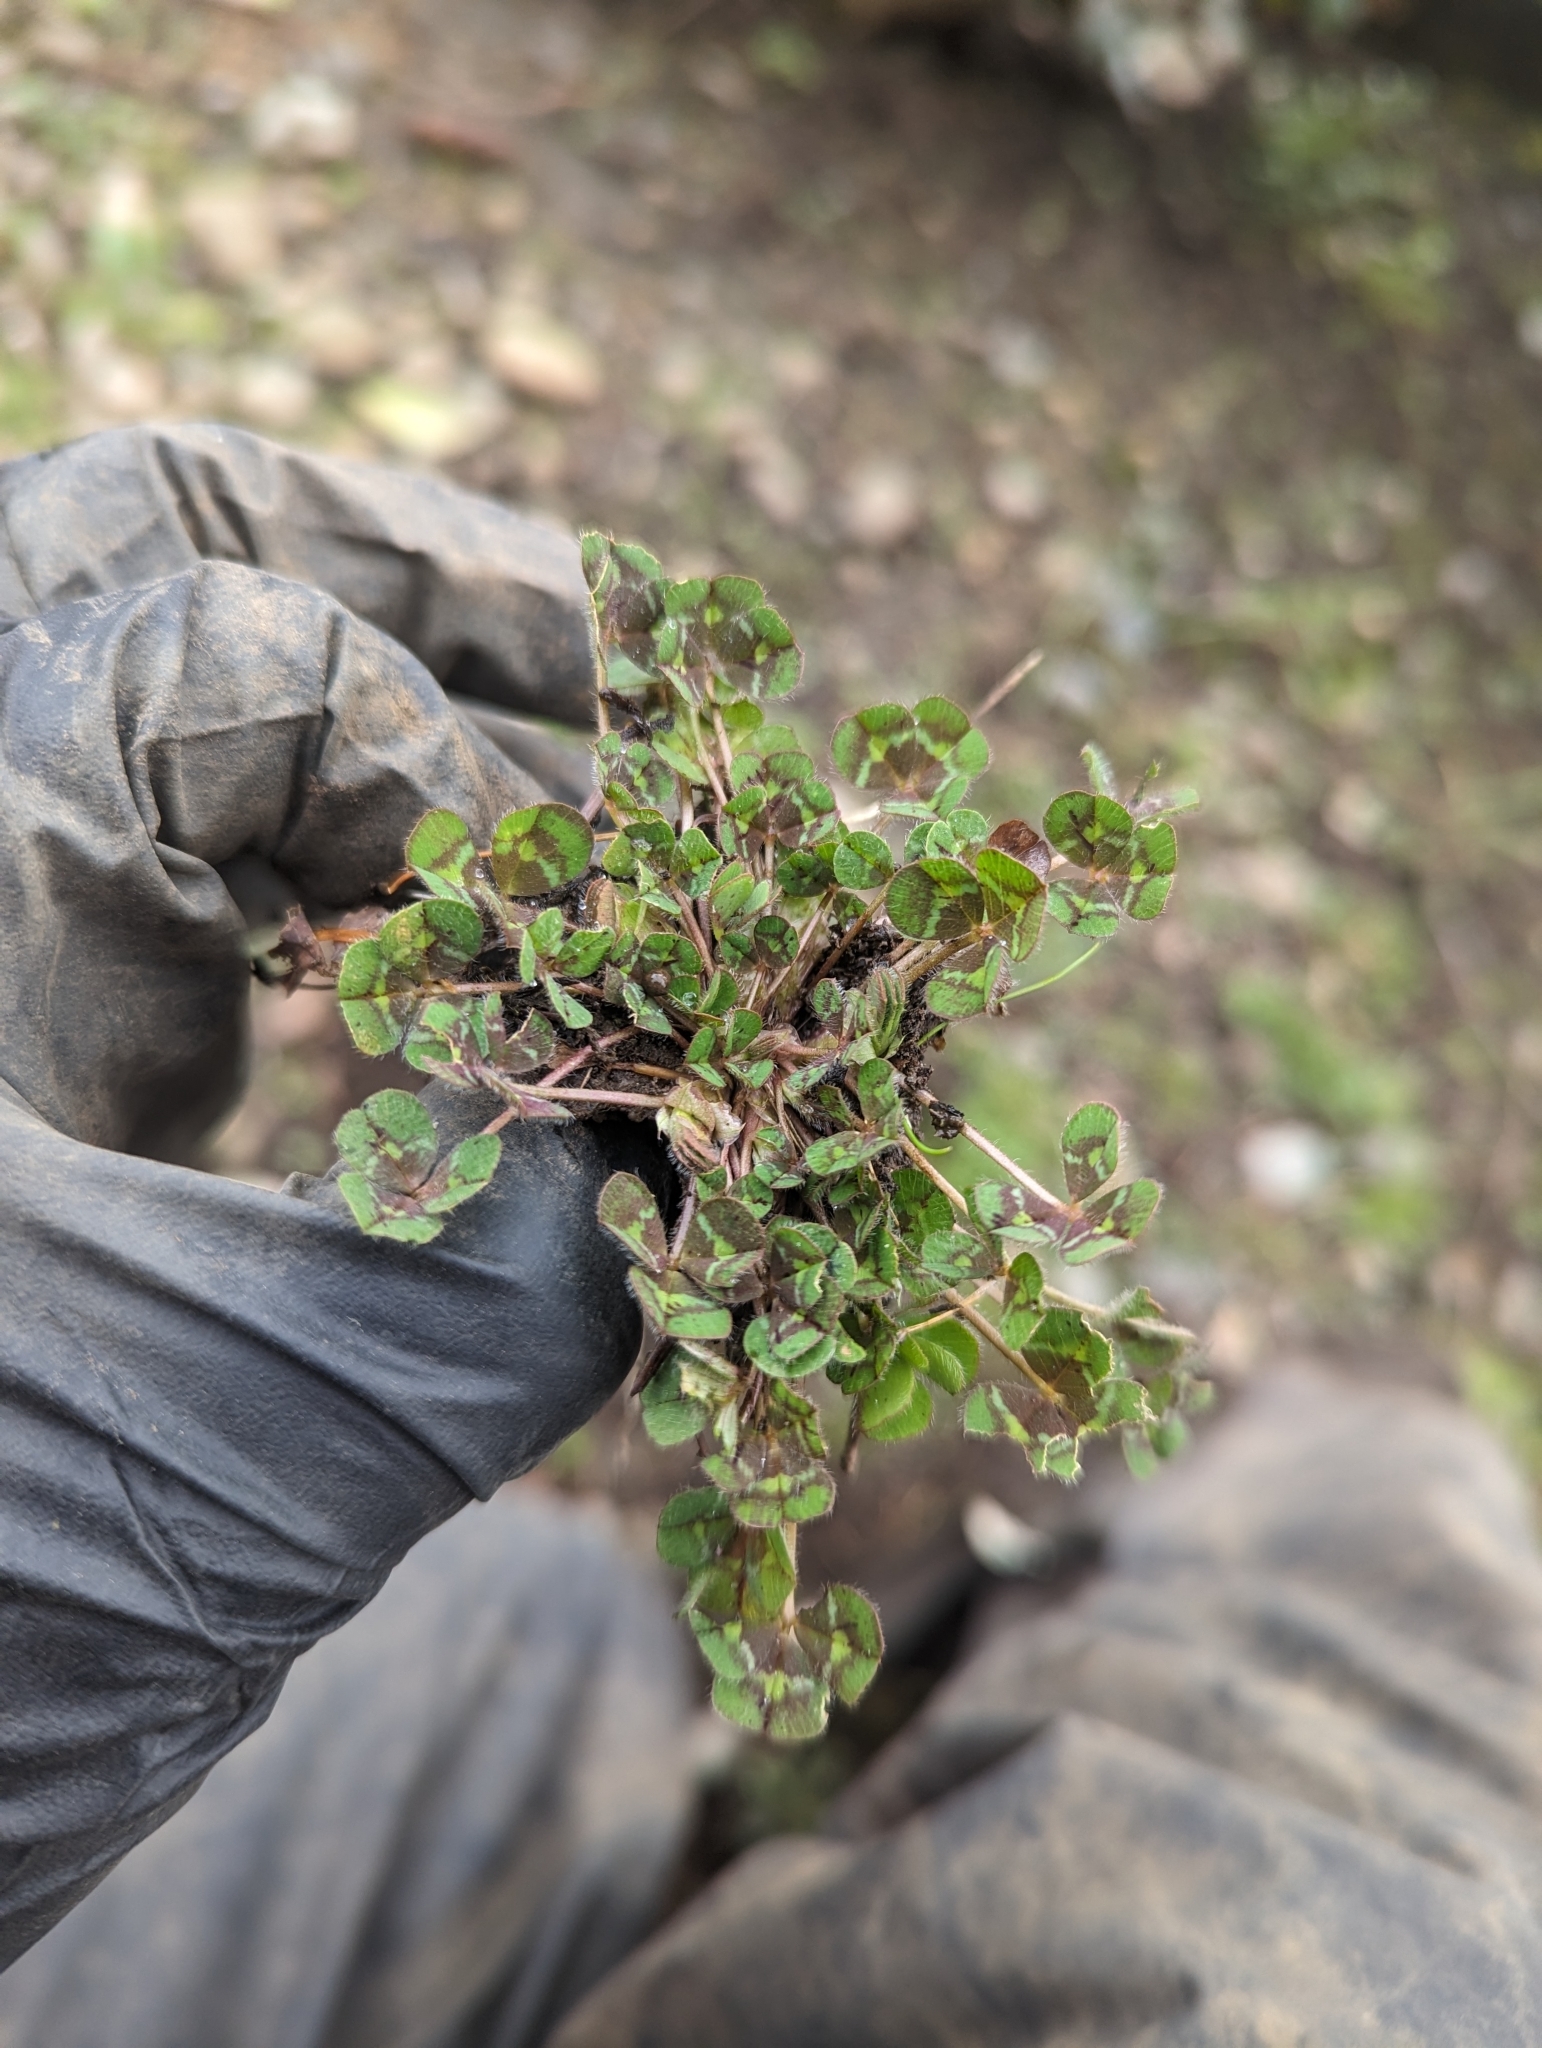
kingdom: Plantae
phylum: Tracheophyta
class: Magnoliopsida
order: Fabales
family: Fabaceae
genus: Trifolium
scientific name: Trifolium subterraneum
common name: Subterranean clover
